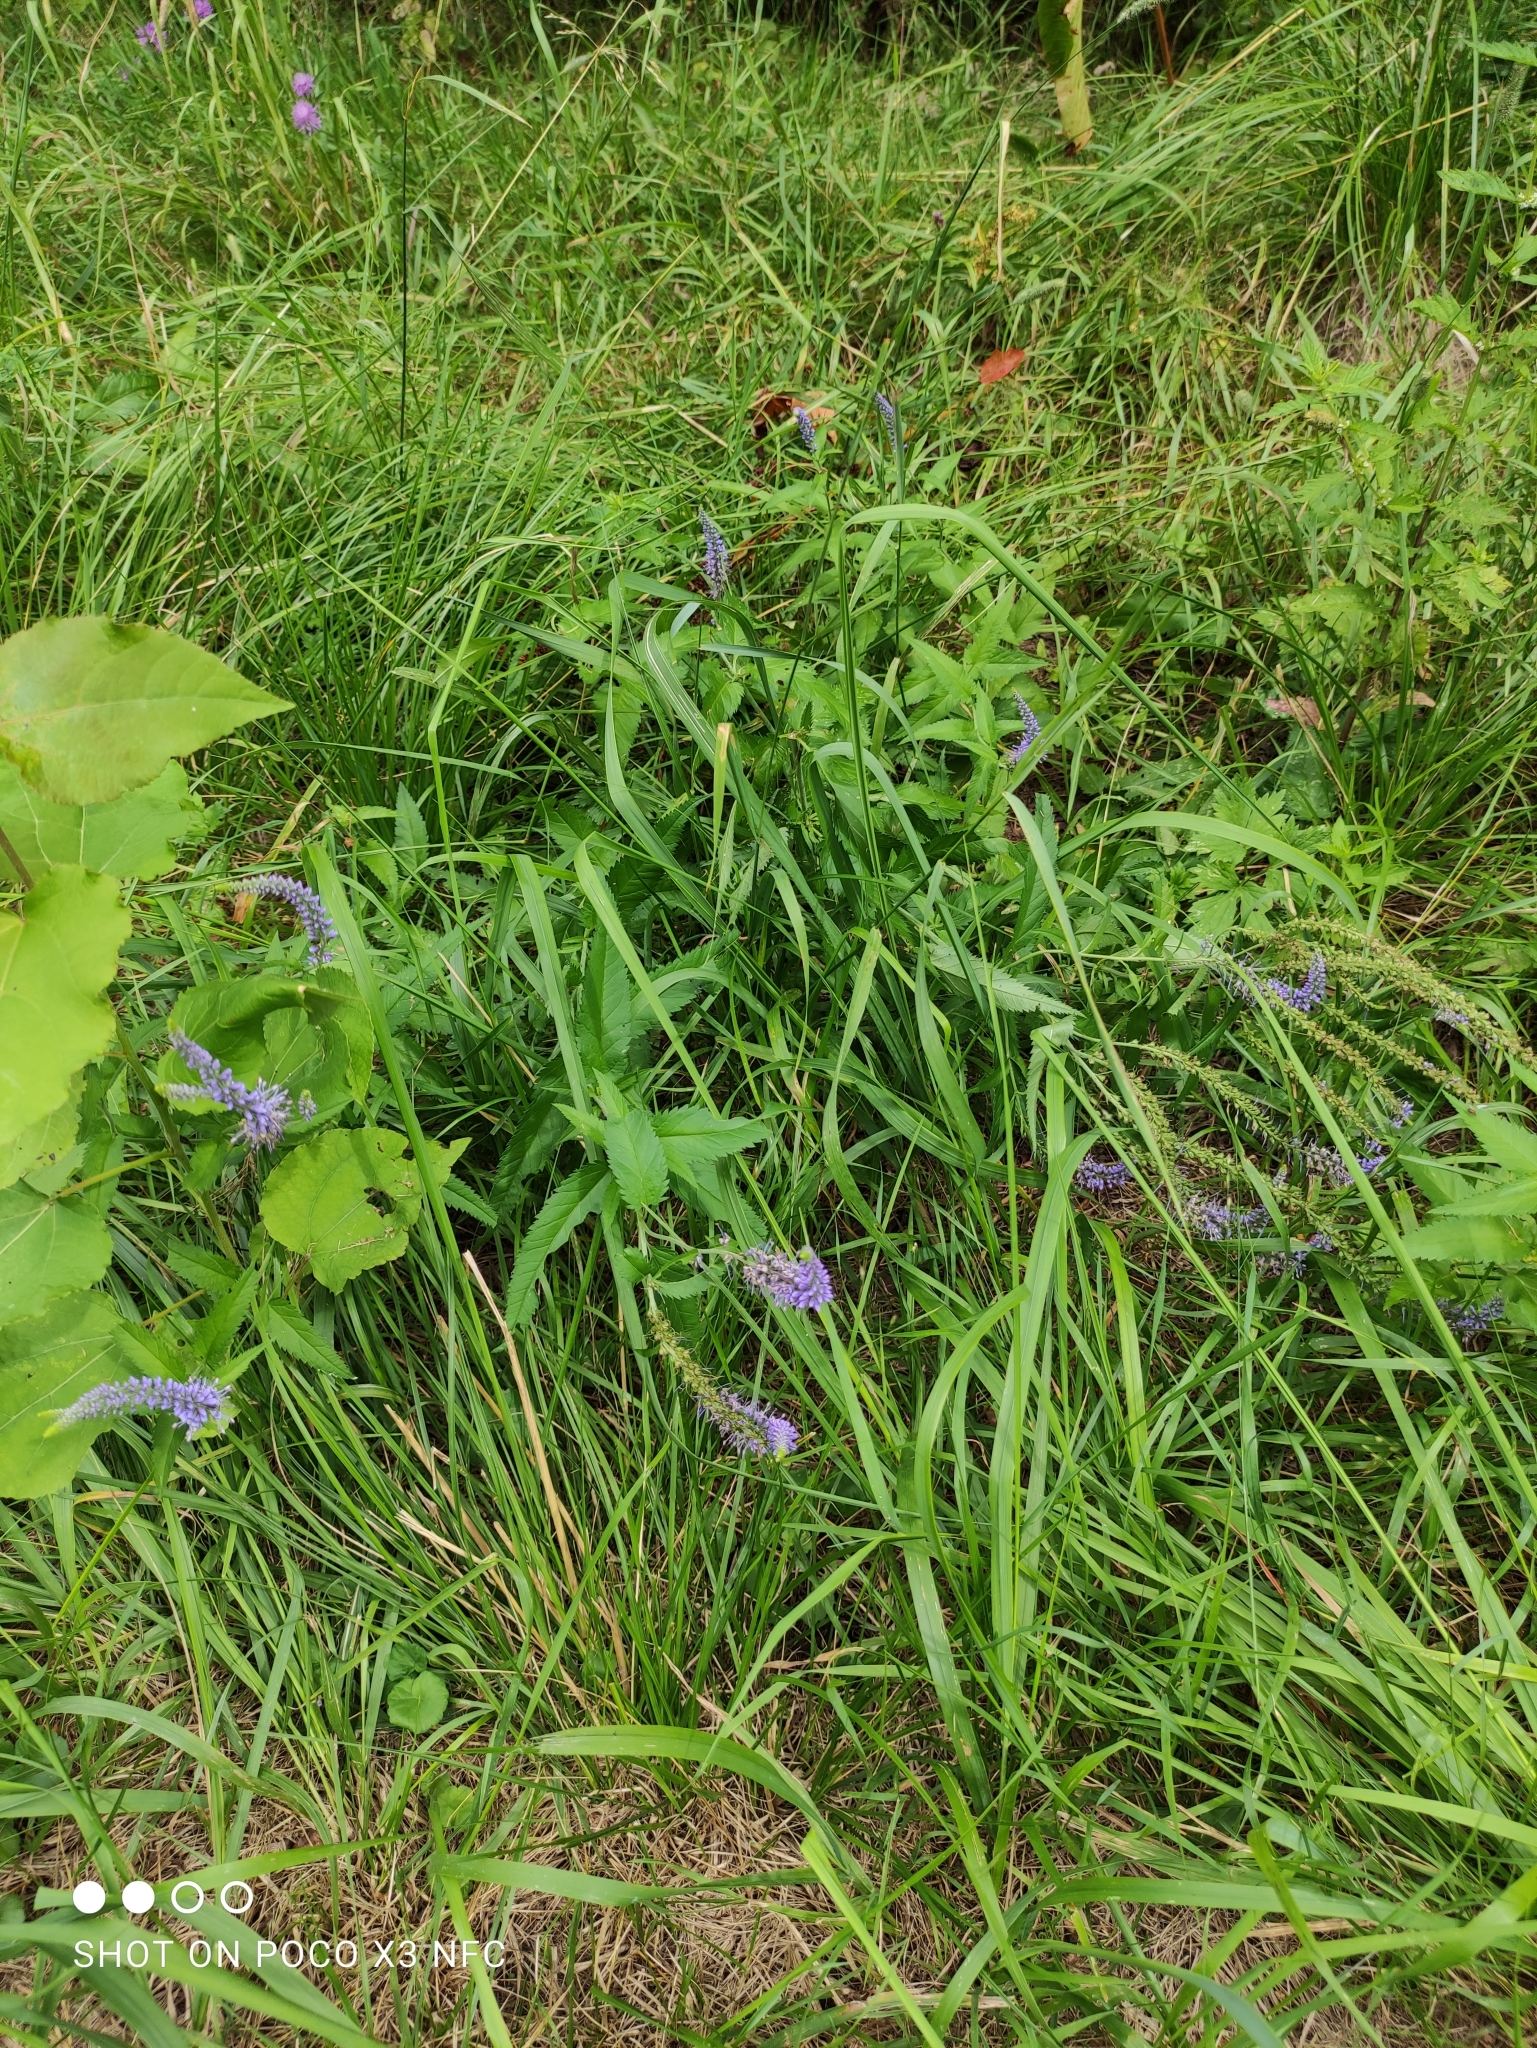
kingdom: Plantae
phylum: Tracheophyta
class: Magnoliopsida
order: Lamiales
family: Plantaginaceae
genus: Veronica
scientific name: Veronica longifolia
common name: Garden speedwell
